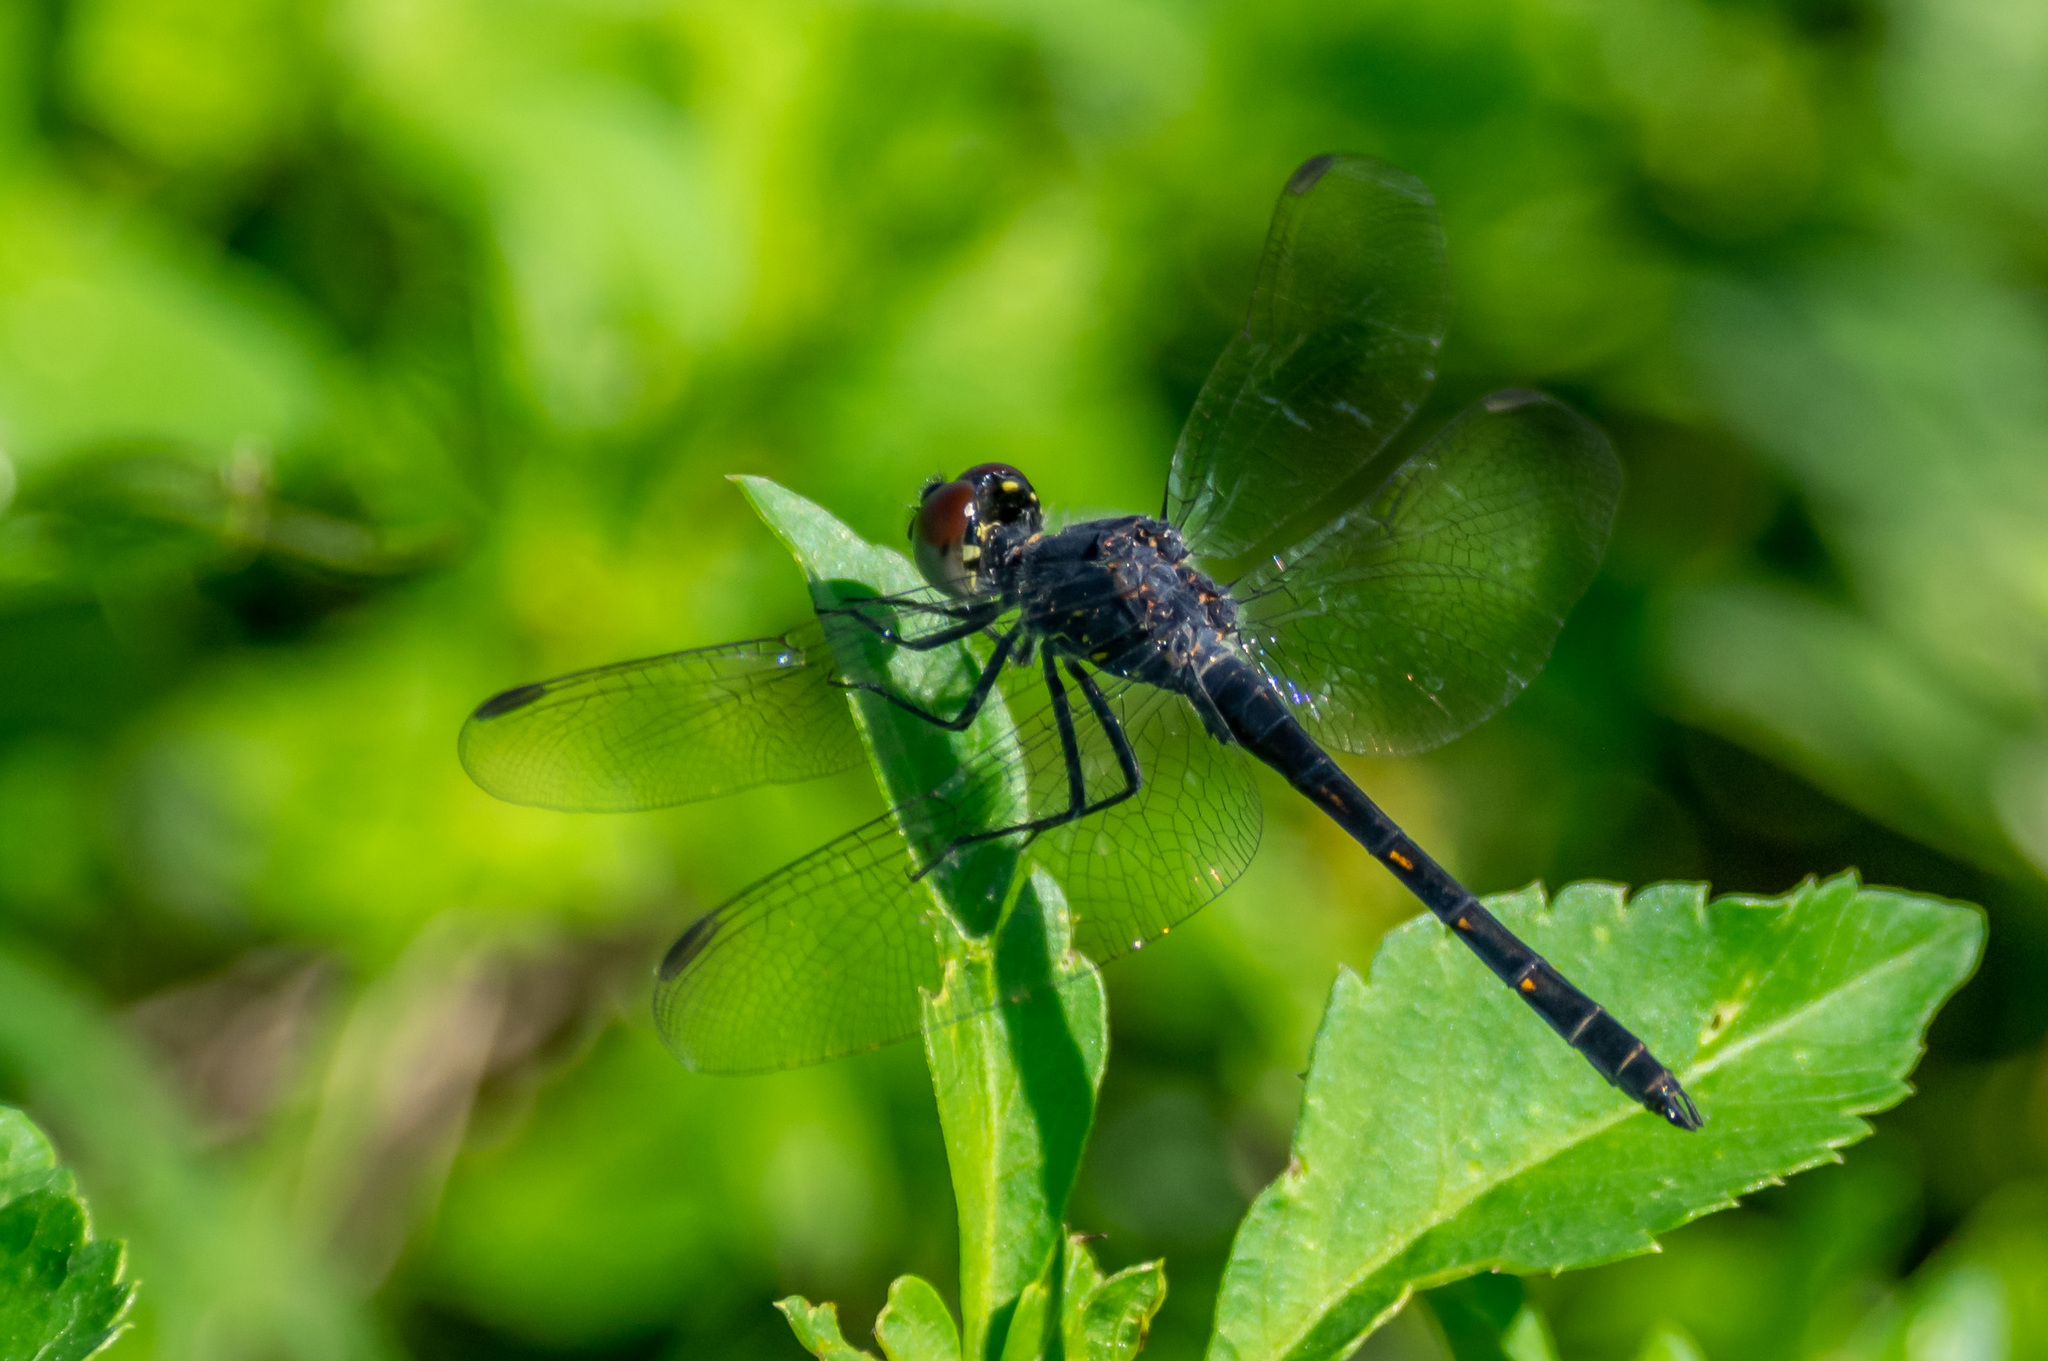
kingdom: Animalia
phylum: Arthropoda
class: Insecta
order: Odonata
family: Libellulidae
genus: Erythrodiplax
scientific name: Erythrodiplax berenice
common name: Seaside dragonlet
